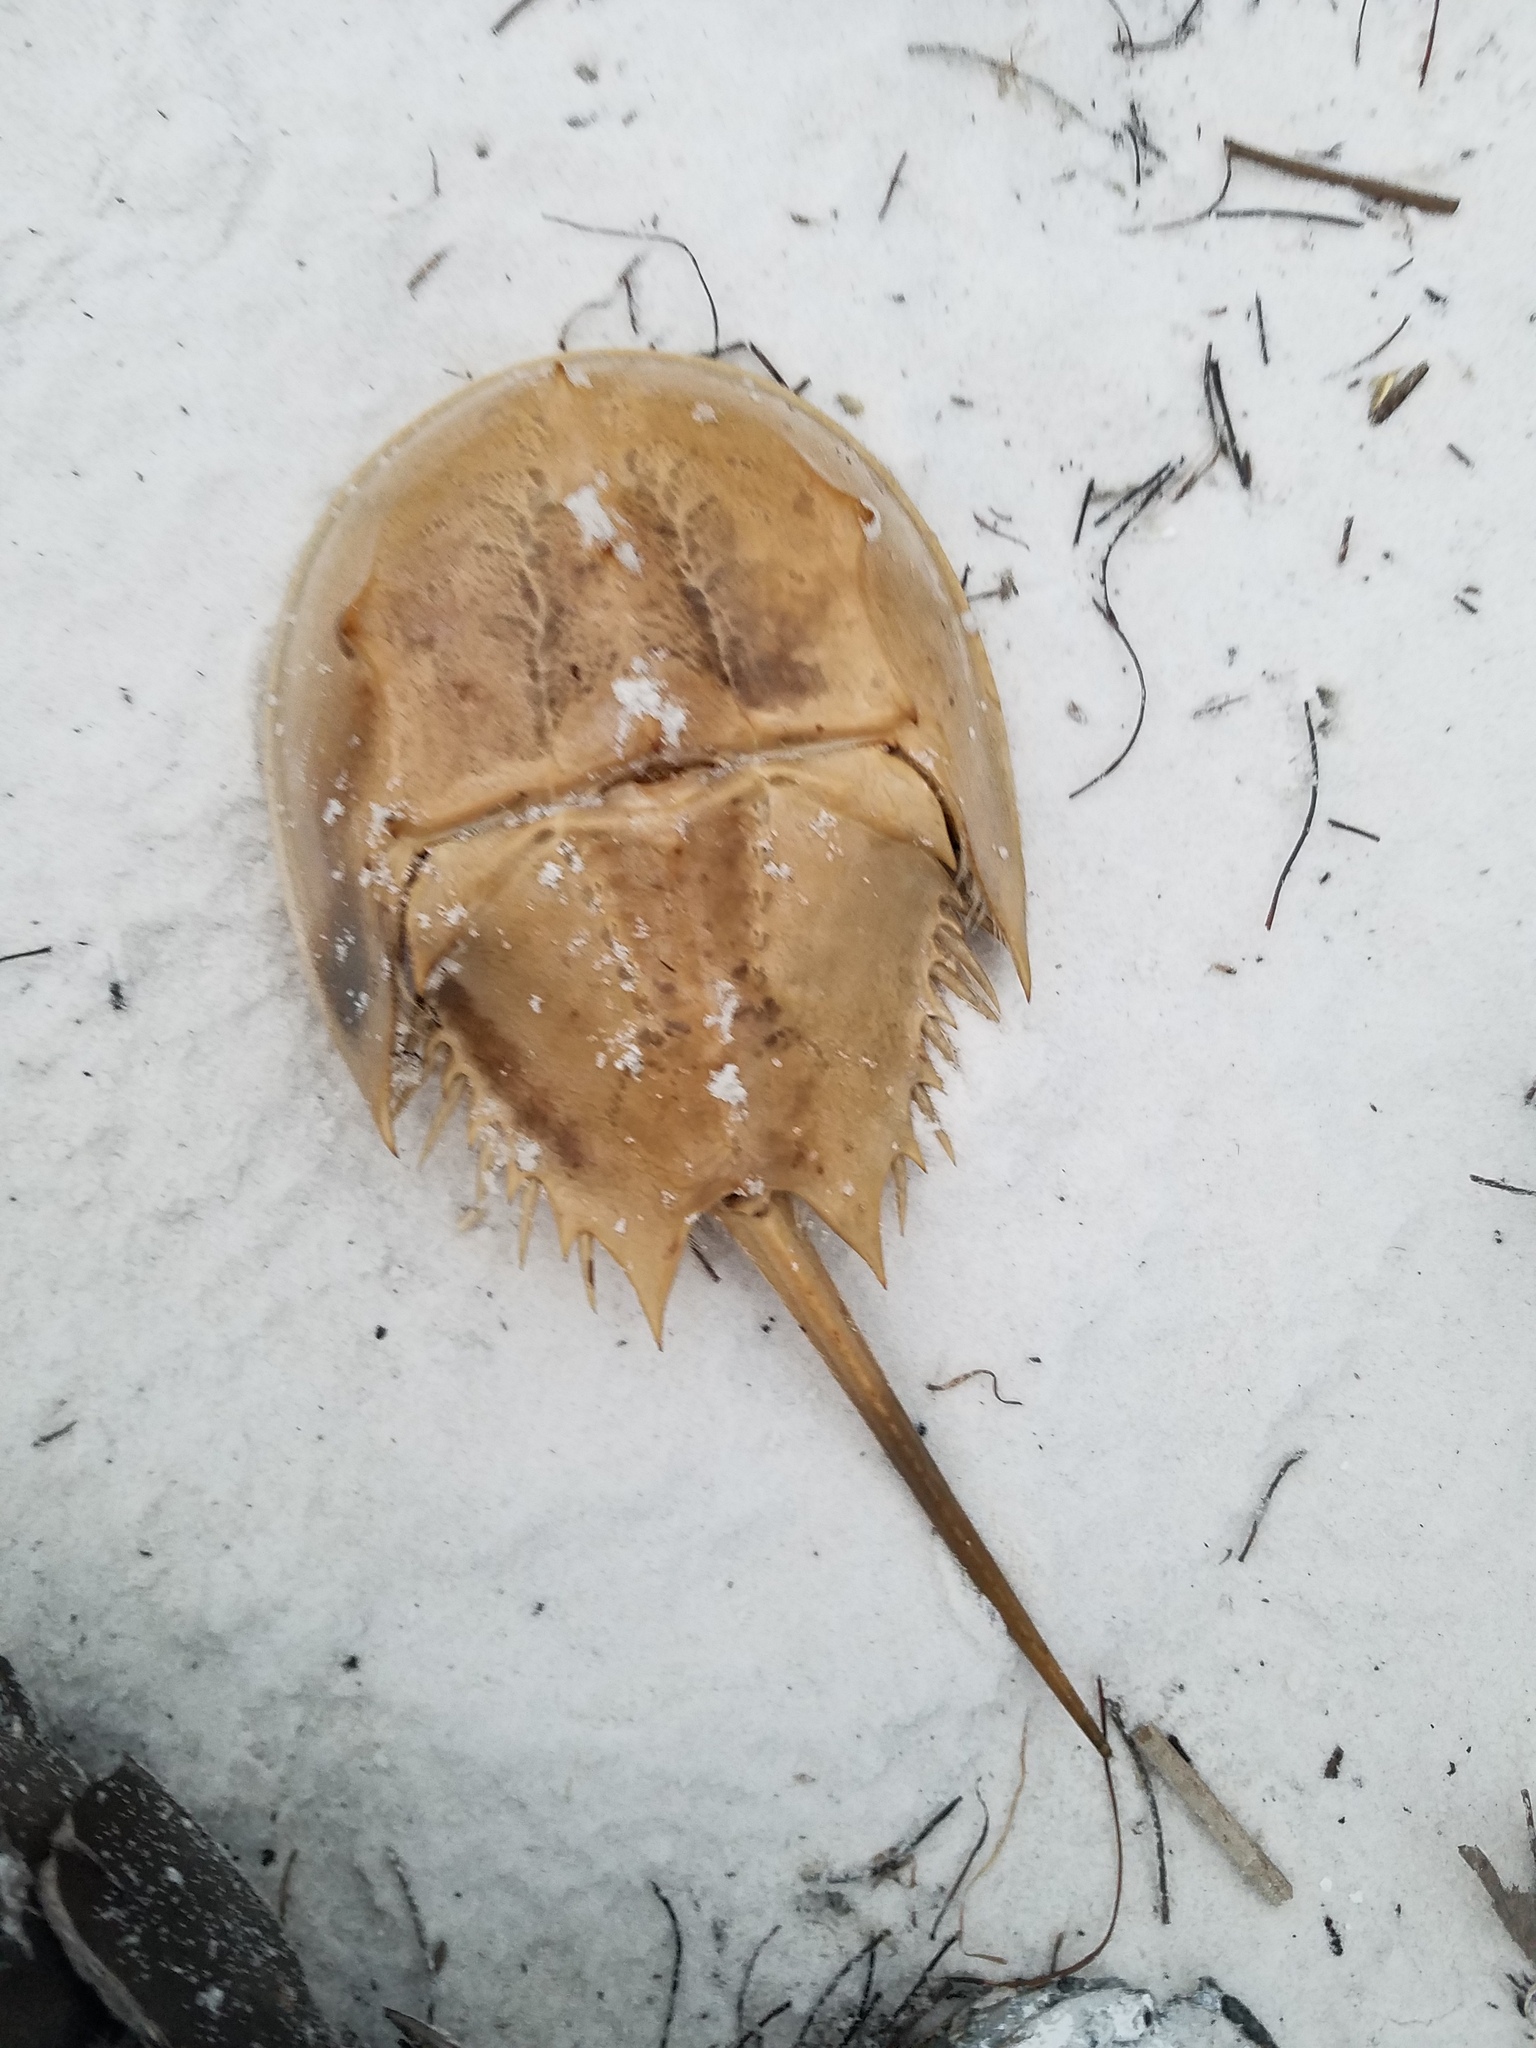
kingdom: Animalia
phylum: Arthropoda
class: Merostomata
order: Xiphosurida
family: Limulidae
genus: Limulus
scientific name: Limulus polyphemus
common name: Horseshoe crab
